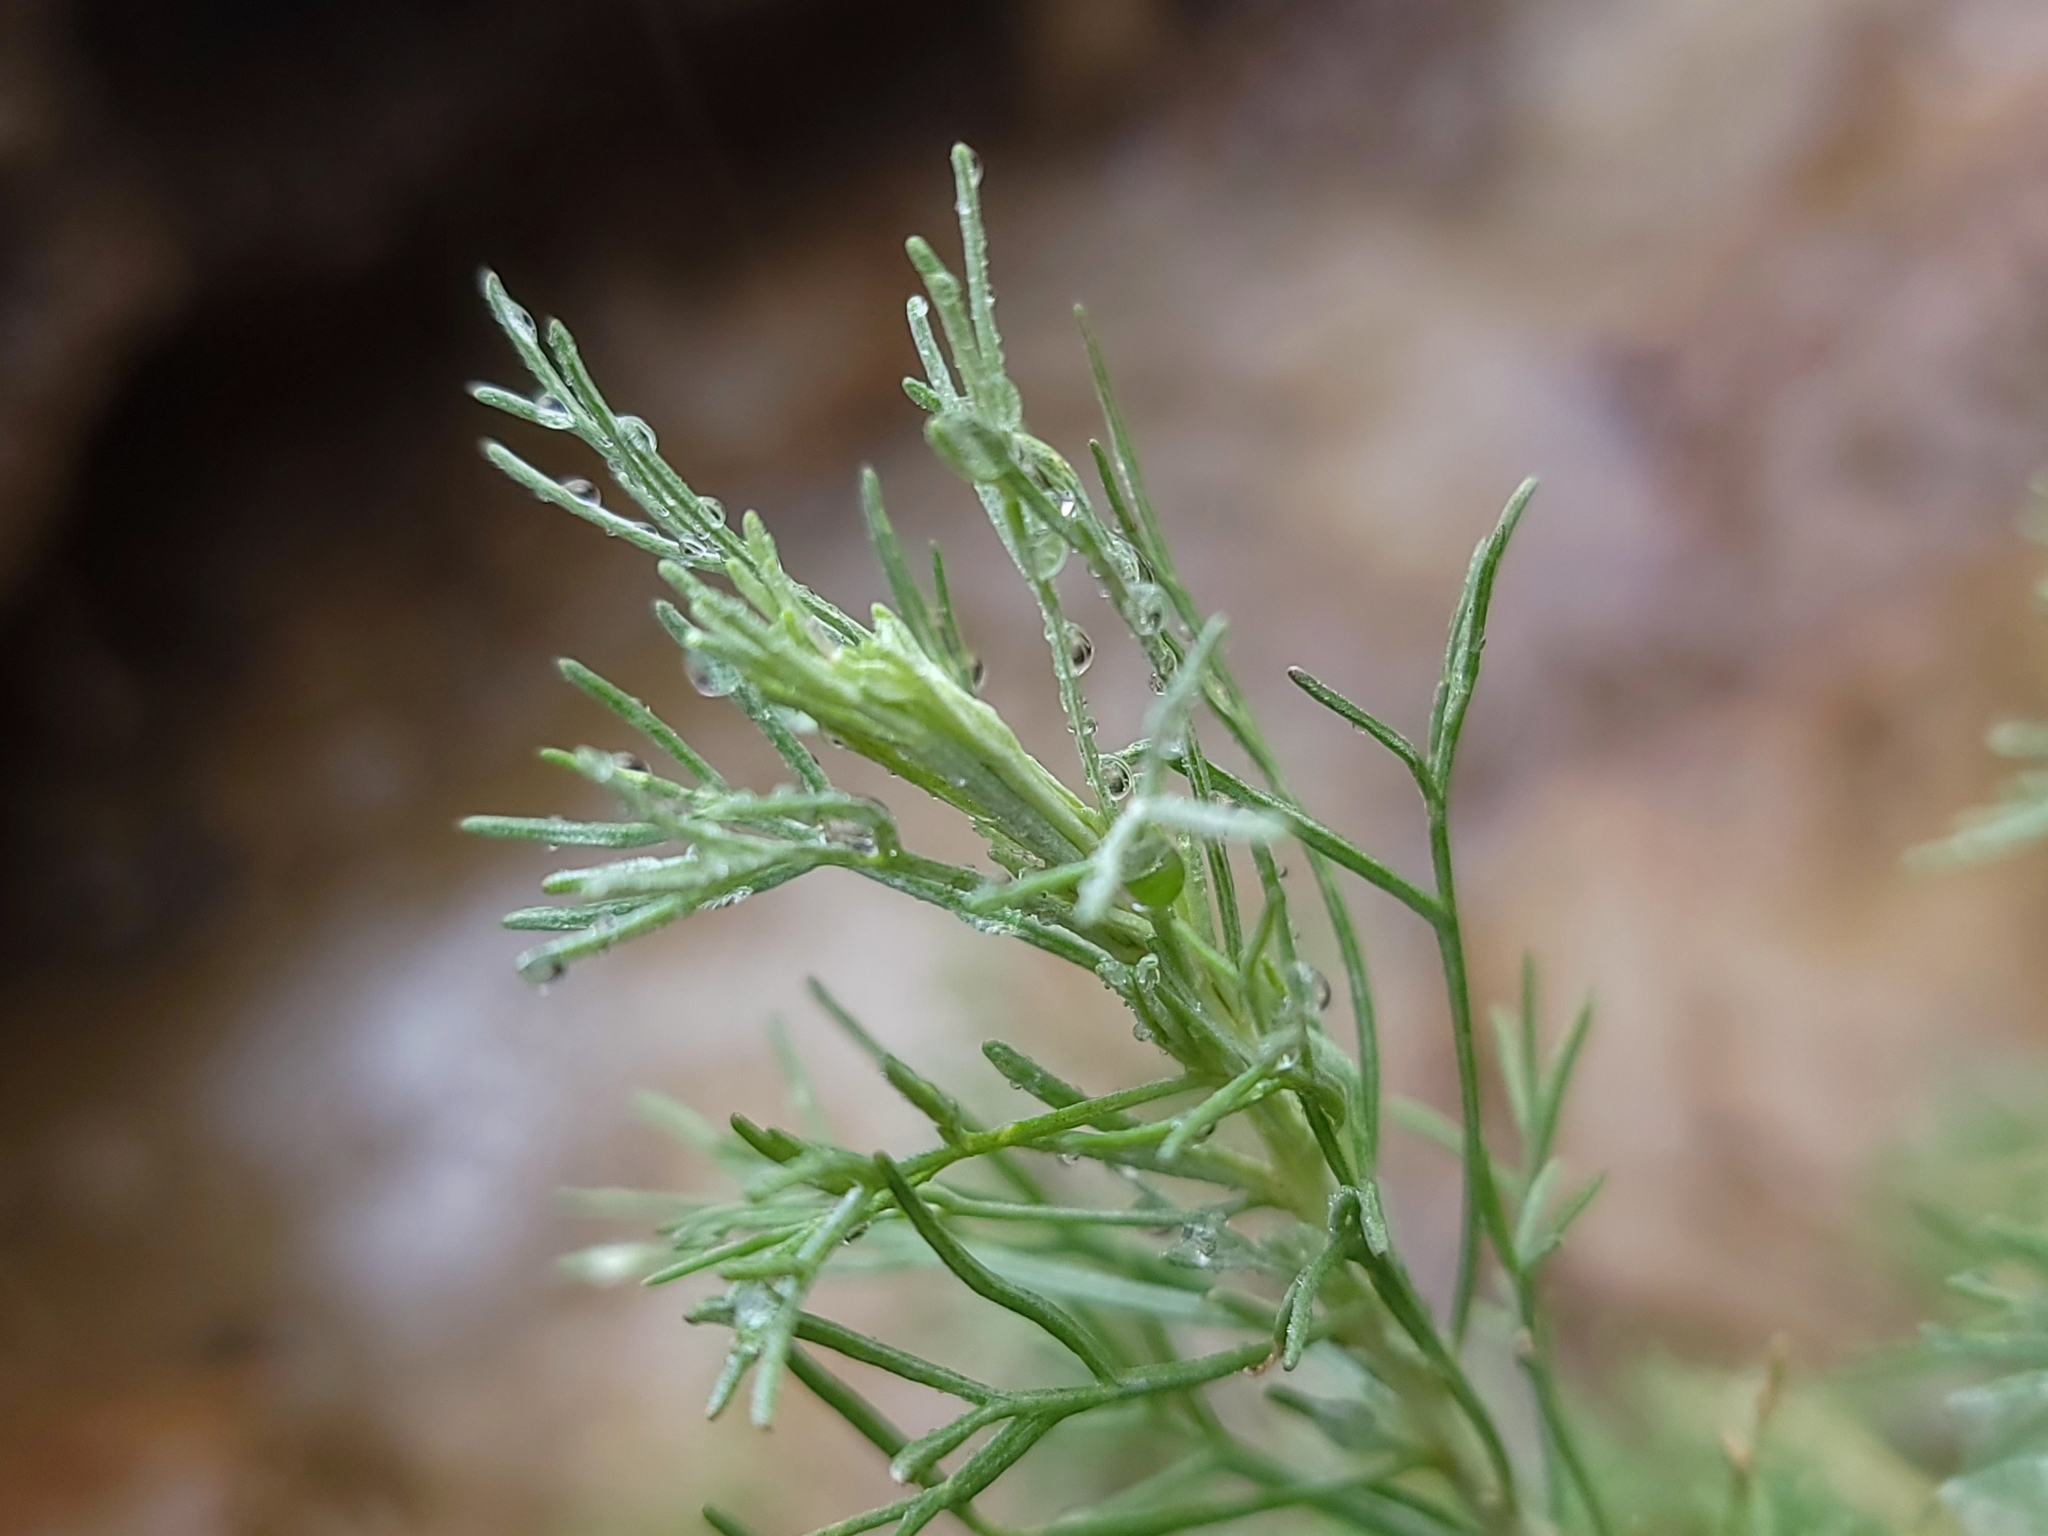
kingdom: Plantae
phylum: Tracheophyta
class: Magnoliopsida
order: Asterales
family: Asteraceae
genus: Artemisia
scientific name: Artemisia californica
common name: California sagebrush
